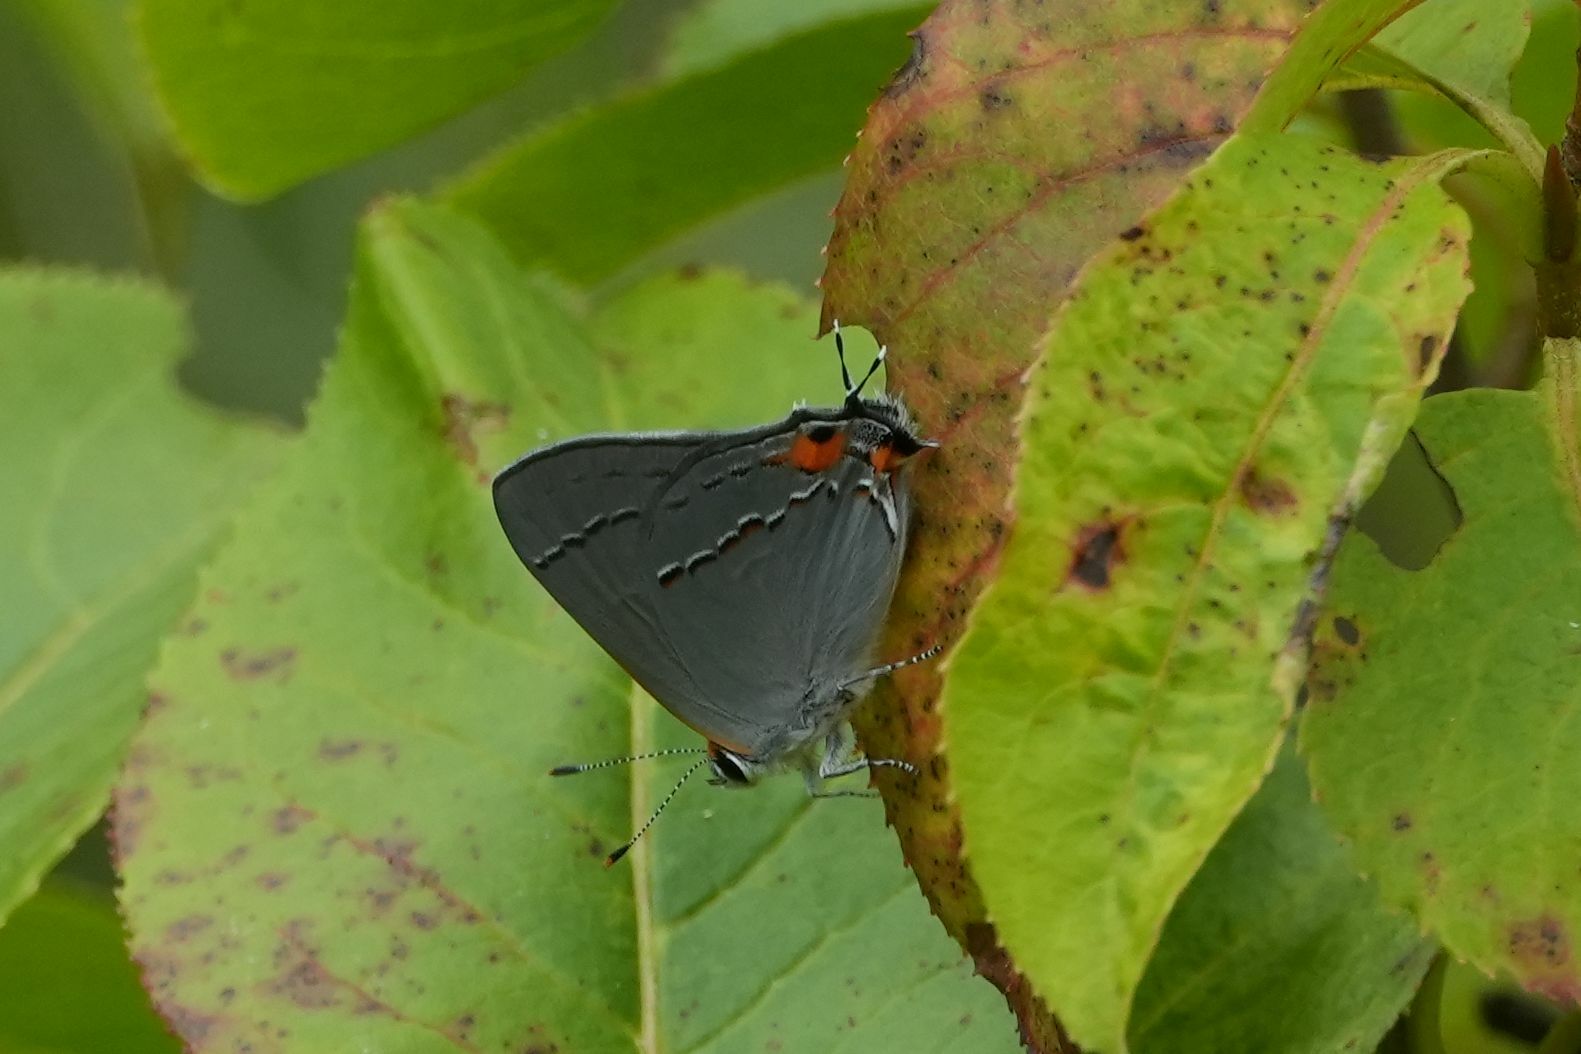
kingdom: Animalia
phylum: Arthropoda
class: Insecta
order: Lepidoptera
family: Lycaenidae
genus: Strymon
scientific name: Strymon melinus
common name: Gray hairstreak
